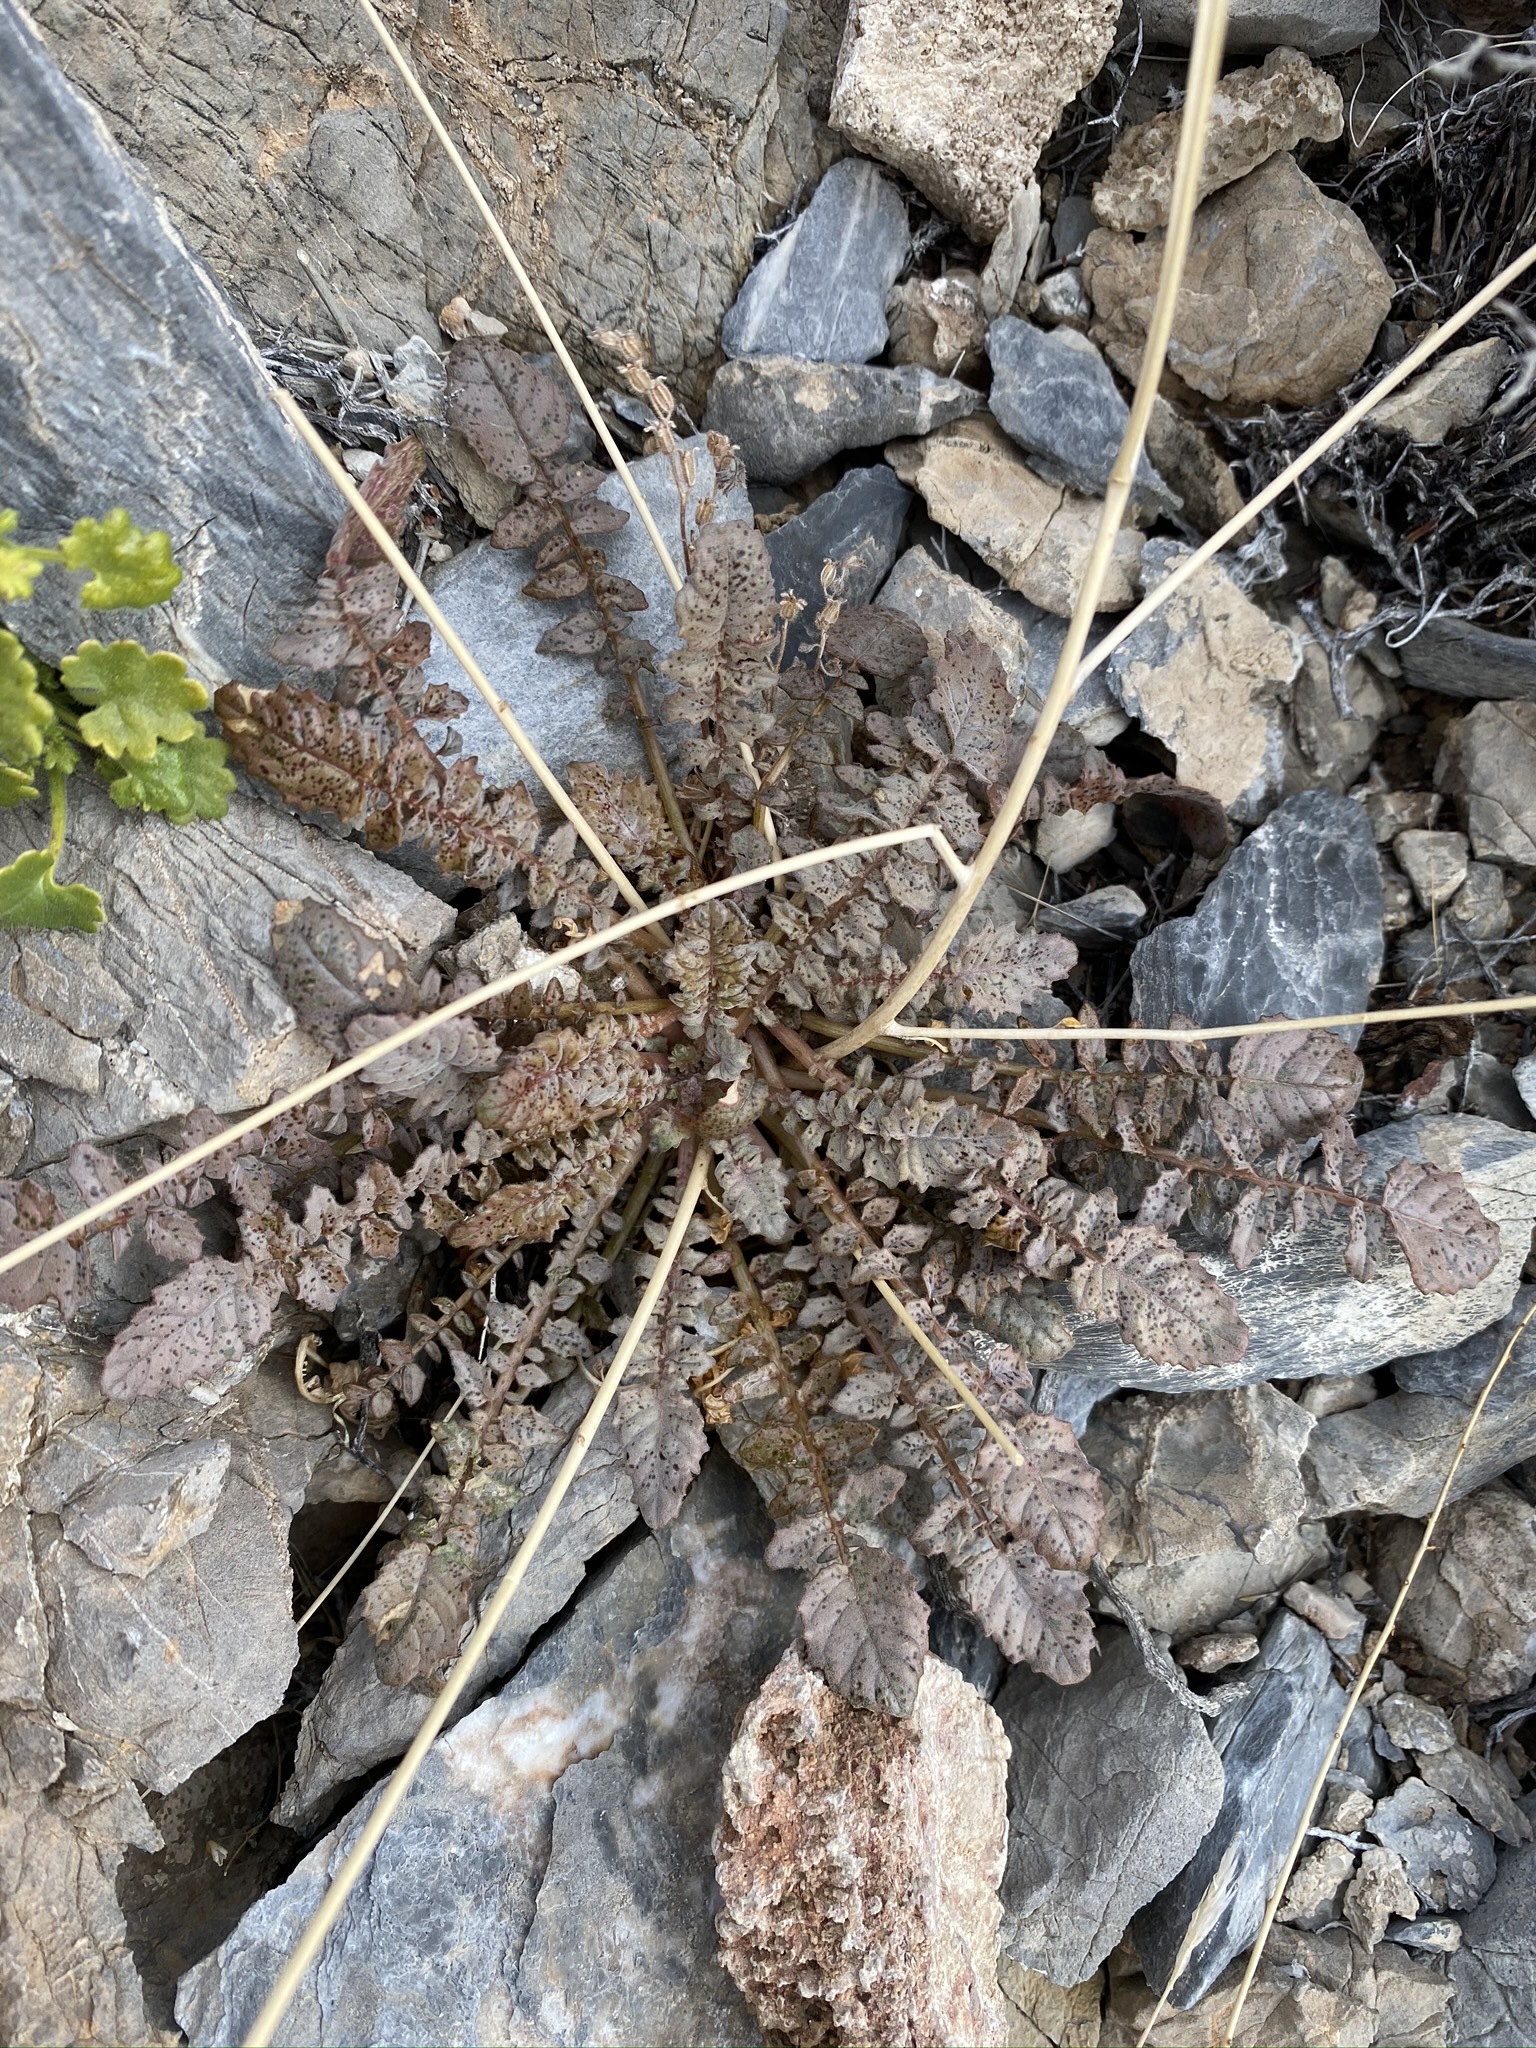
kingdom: Plantae
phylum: Tracheophyta
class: Magnoliopsida
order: Myrtales
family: Onagraceae
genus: Chylismia
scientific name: Chylismia walkeri
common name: Walker's suncup
